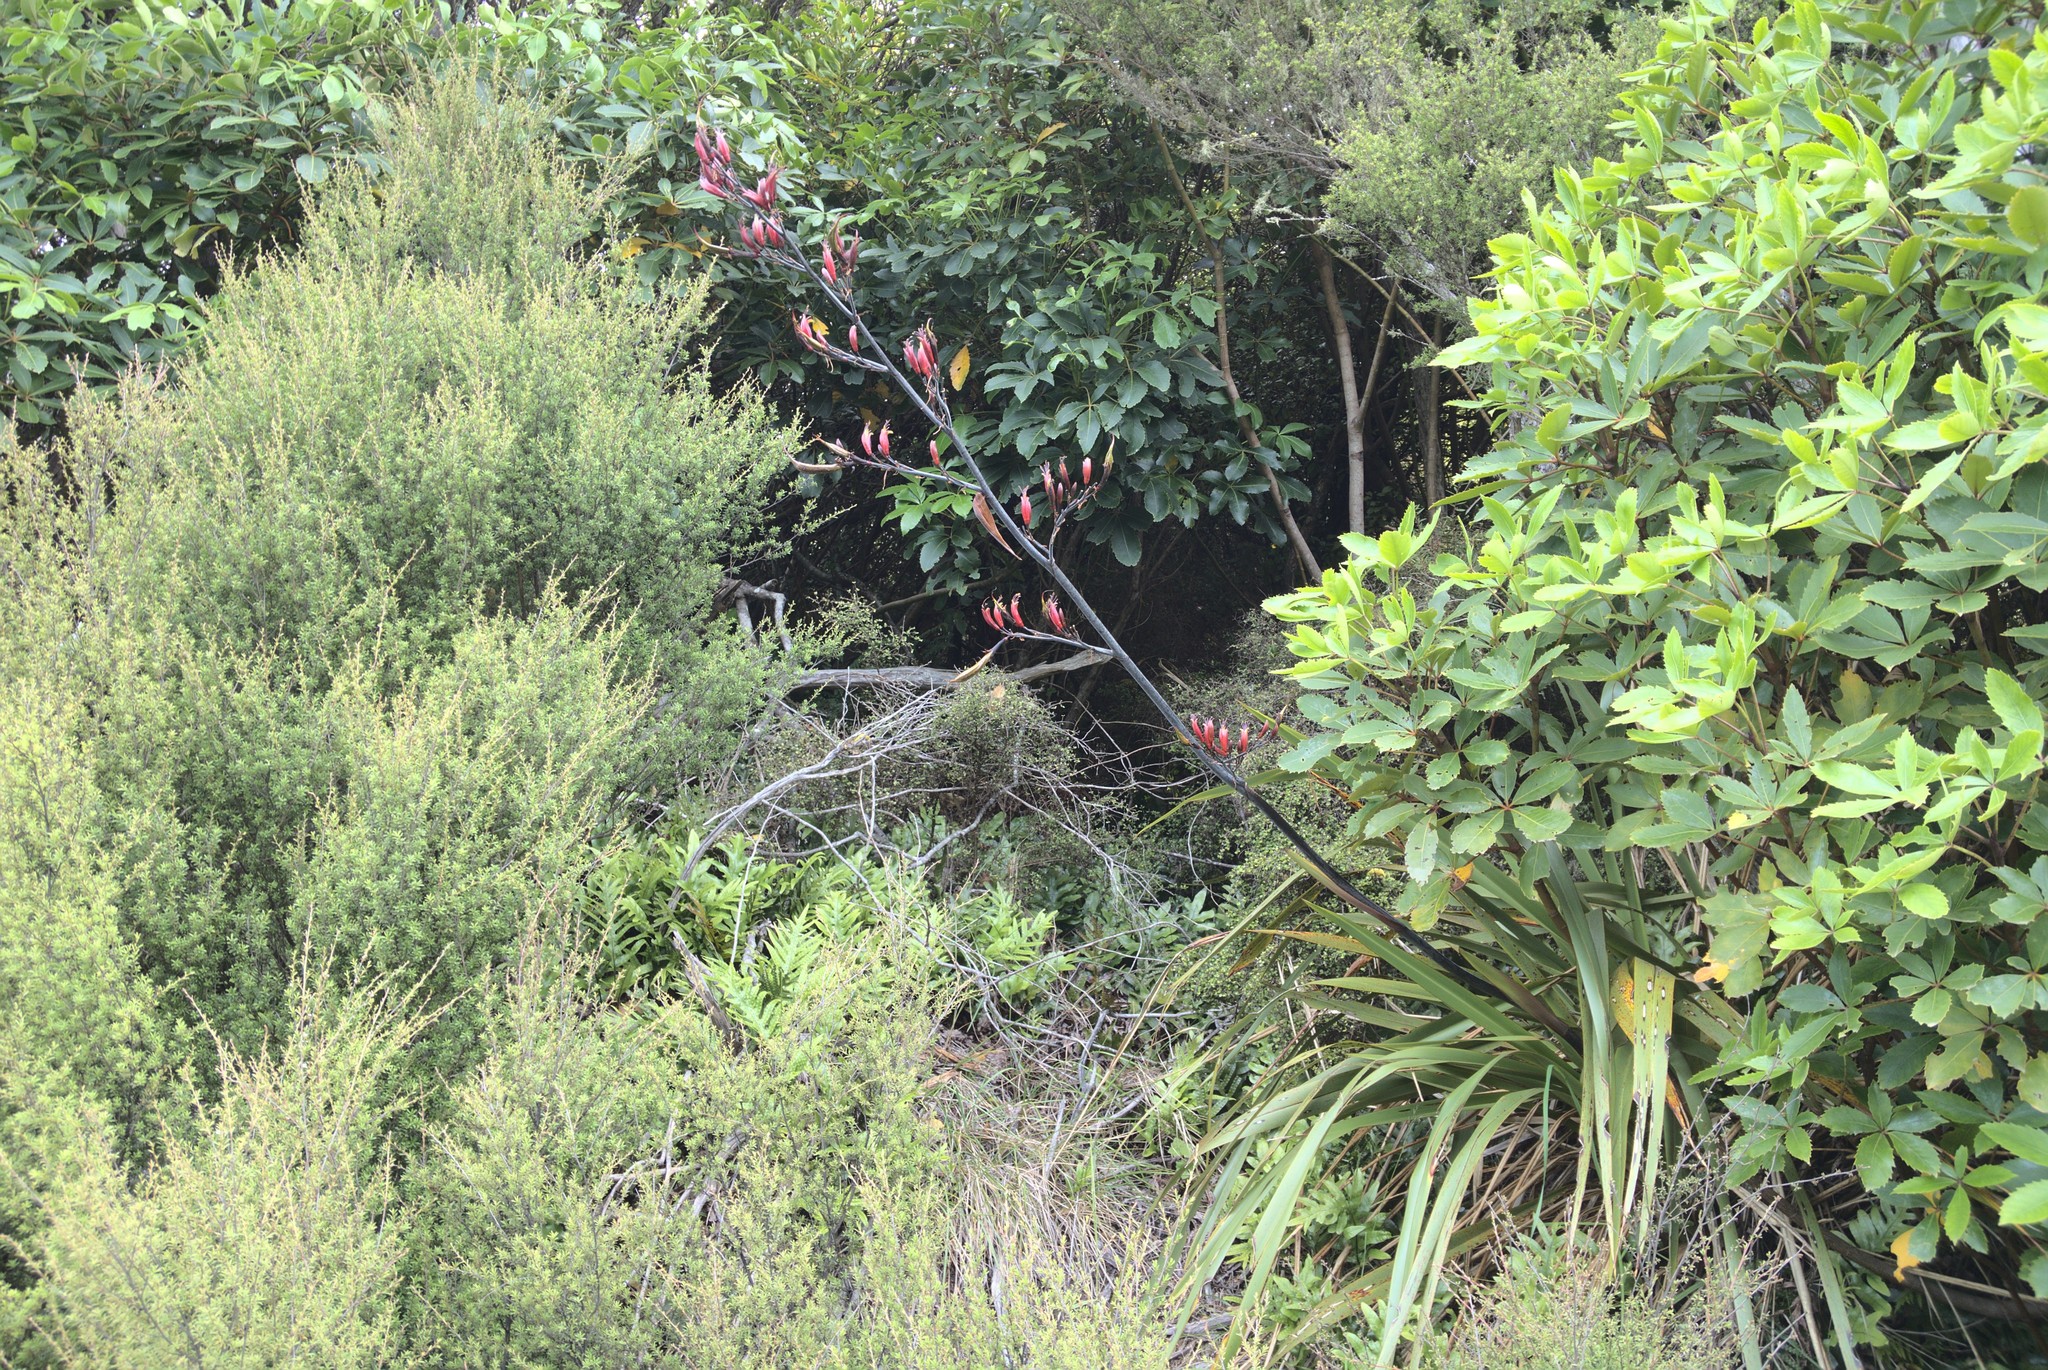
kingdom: Plantae
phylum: Tracheophyta
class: Liliopsida
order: Asparagales
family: Asphodelaceae
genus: Phormium
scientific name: Phormium colensoi
